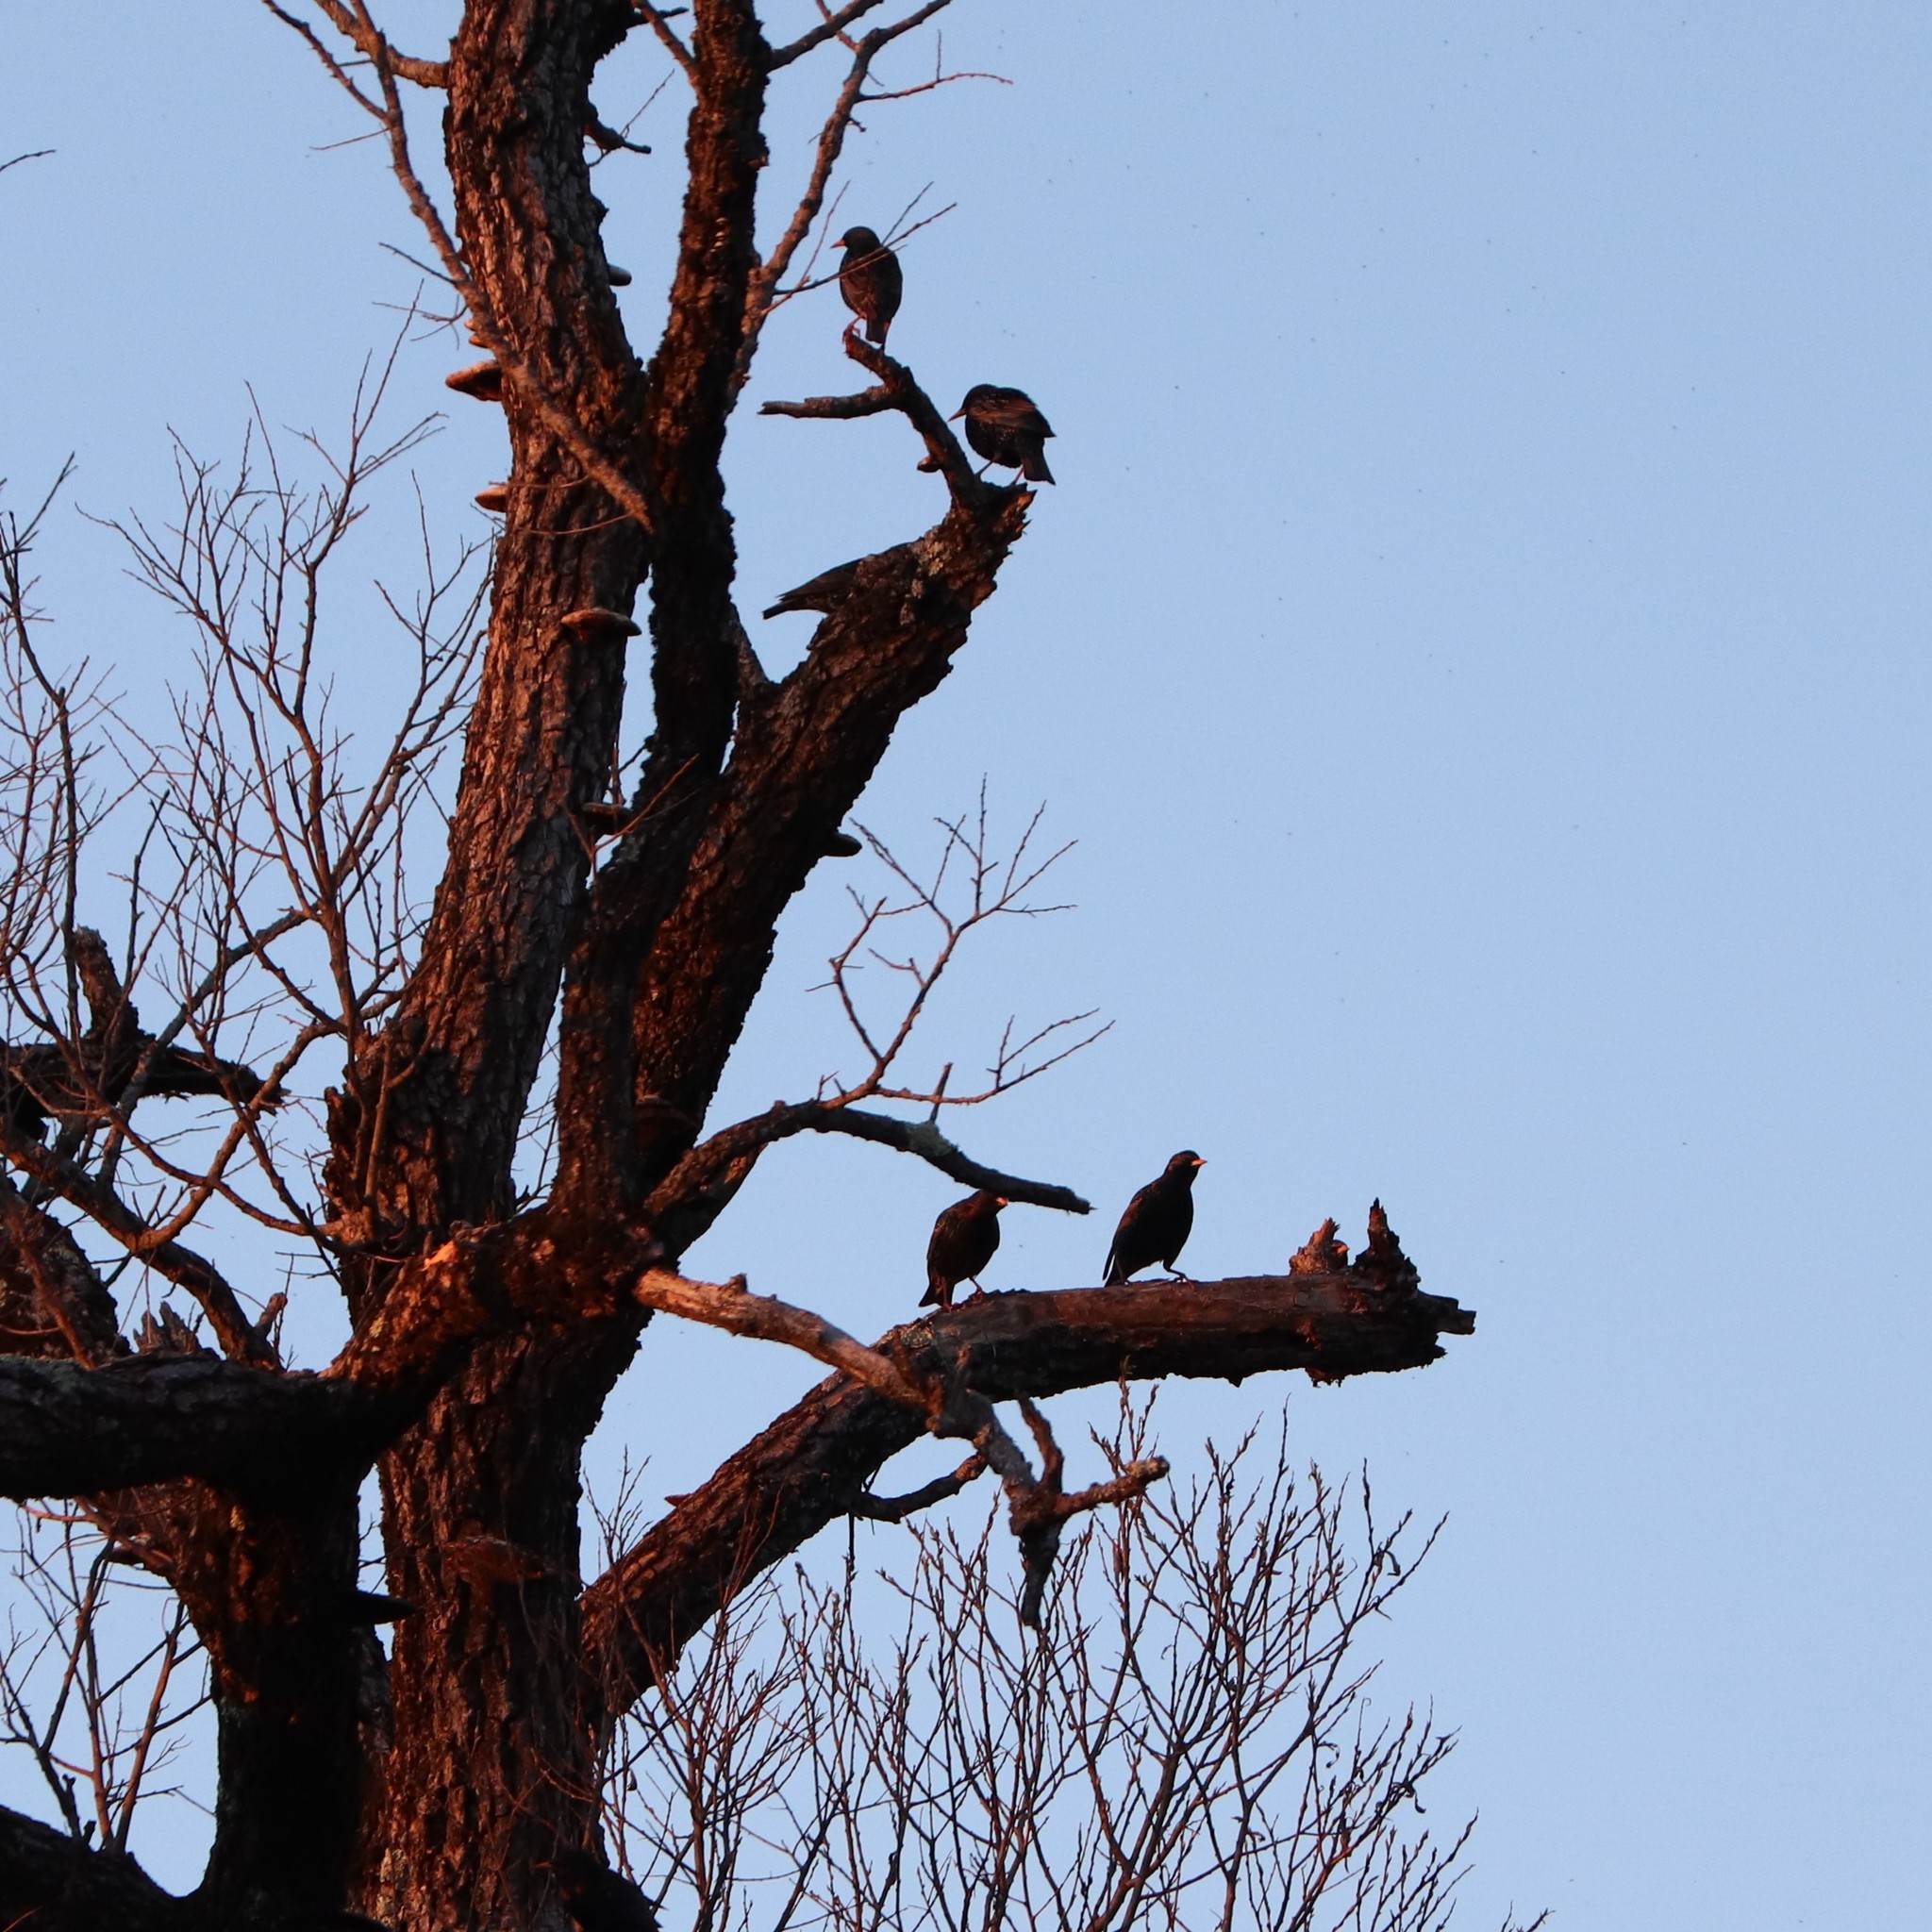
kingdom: Animalia
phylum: Chordata
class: Aves
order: Passeriformes
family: Sturnidae
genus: Sturnus
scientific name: Sturnus vulgaris
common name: Common starling
